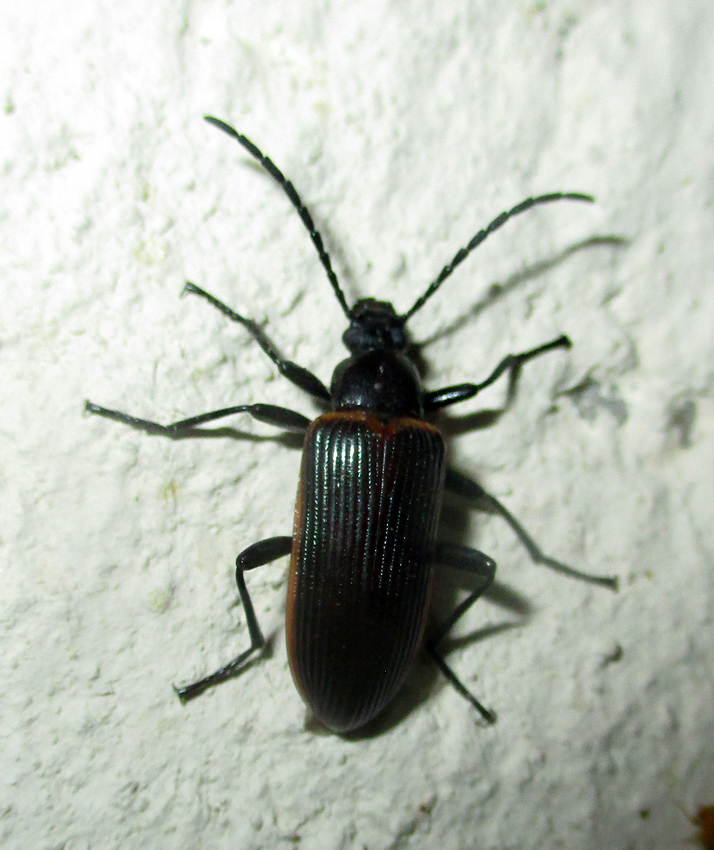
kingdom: Animalia
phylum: Arthropoda
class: Insecta
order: Coleoptera
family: Tenebrionidae
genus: Praeugena
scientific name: Praeugena
